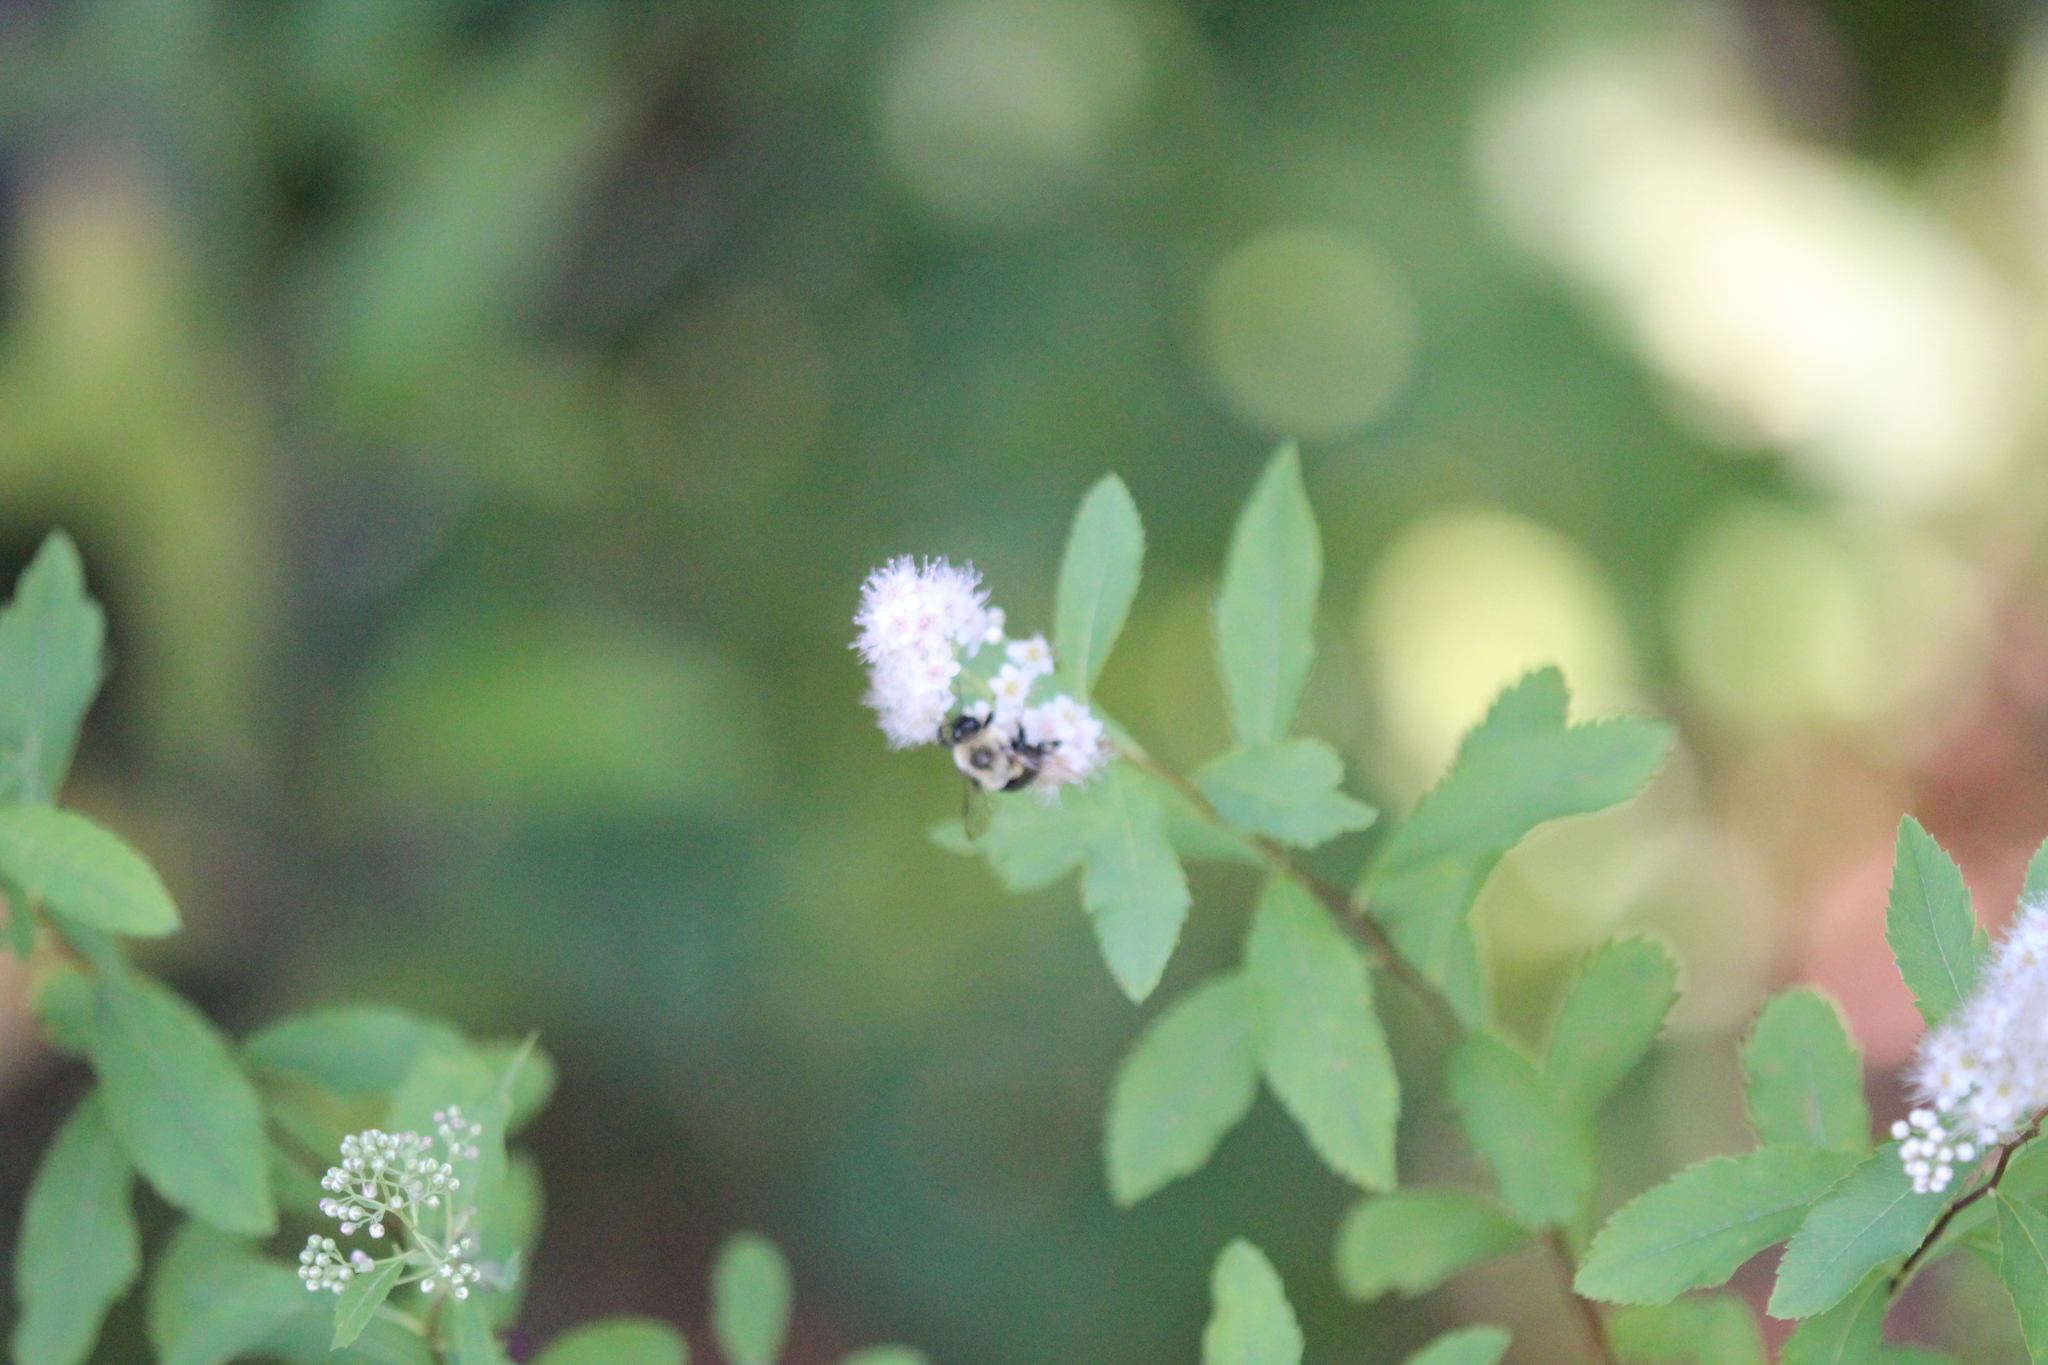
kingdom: Plantae
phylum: Tracheophyta
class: Magnoliopsida
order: Rosales
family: Rosaceae
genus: Spiraea
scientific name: Spiraea alba
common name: Pale bridewort
